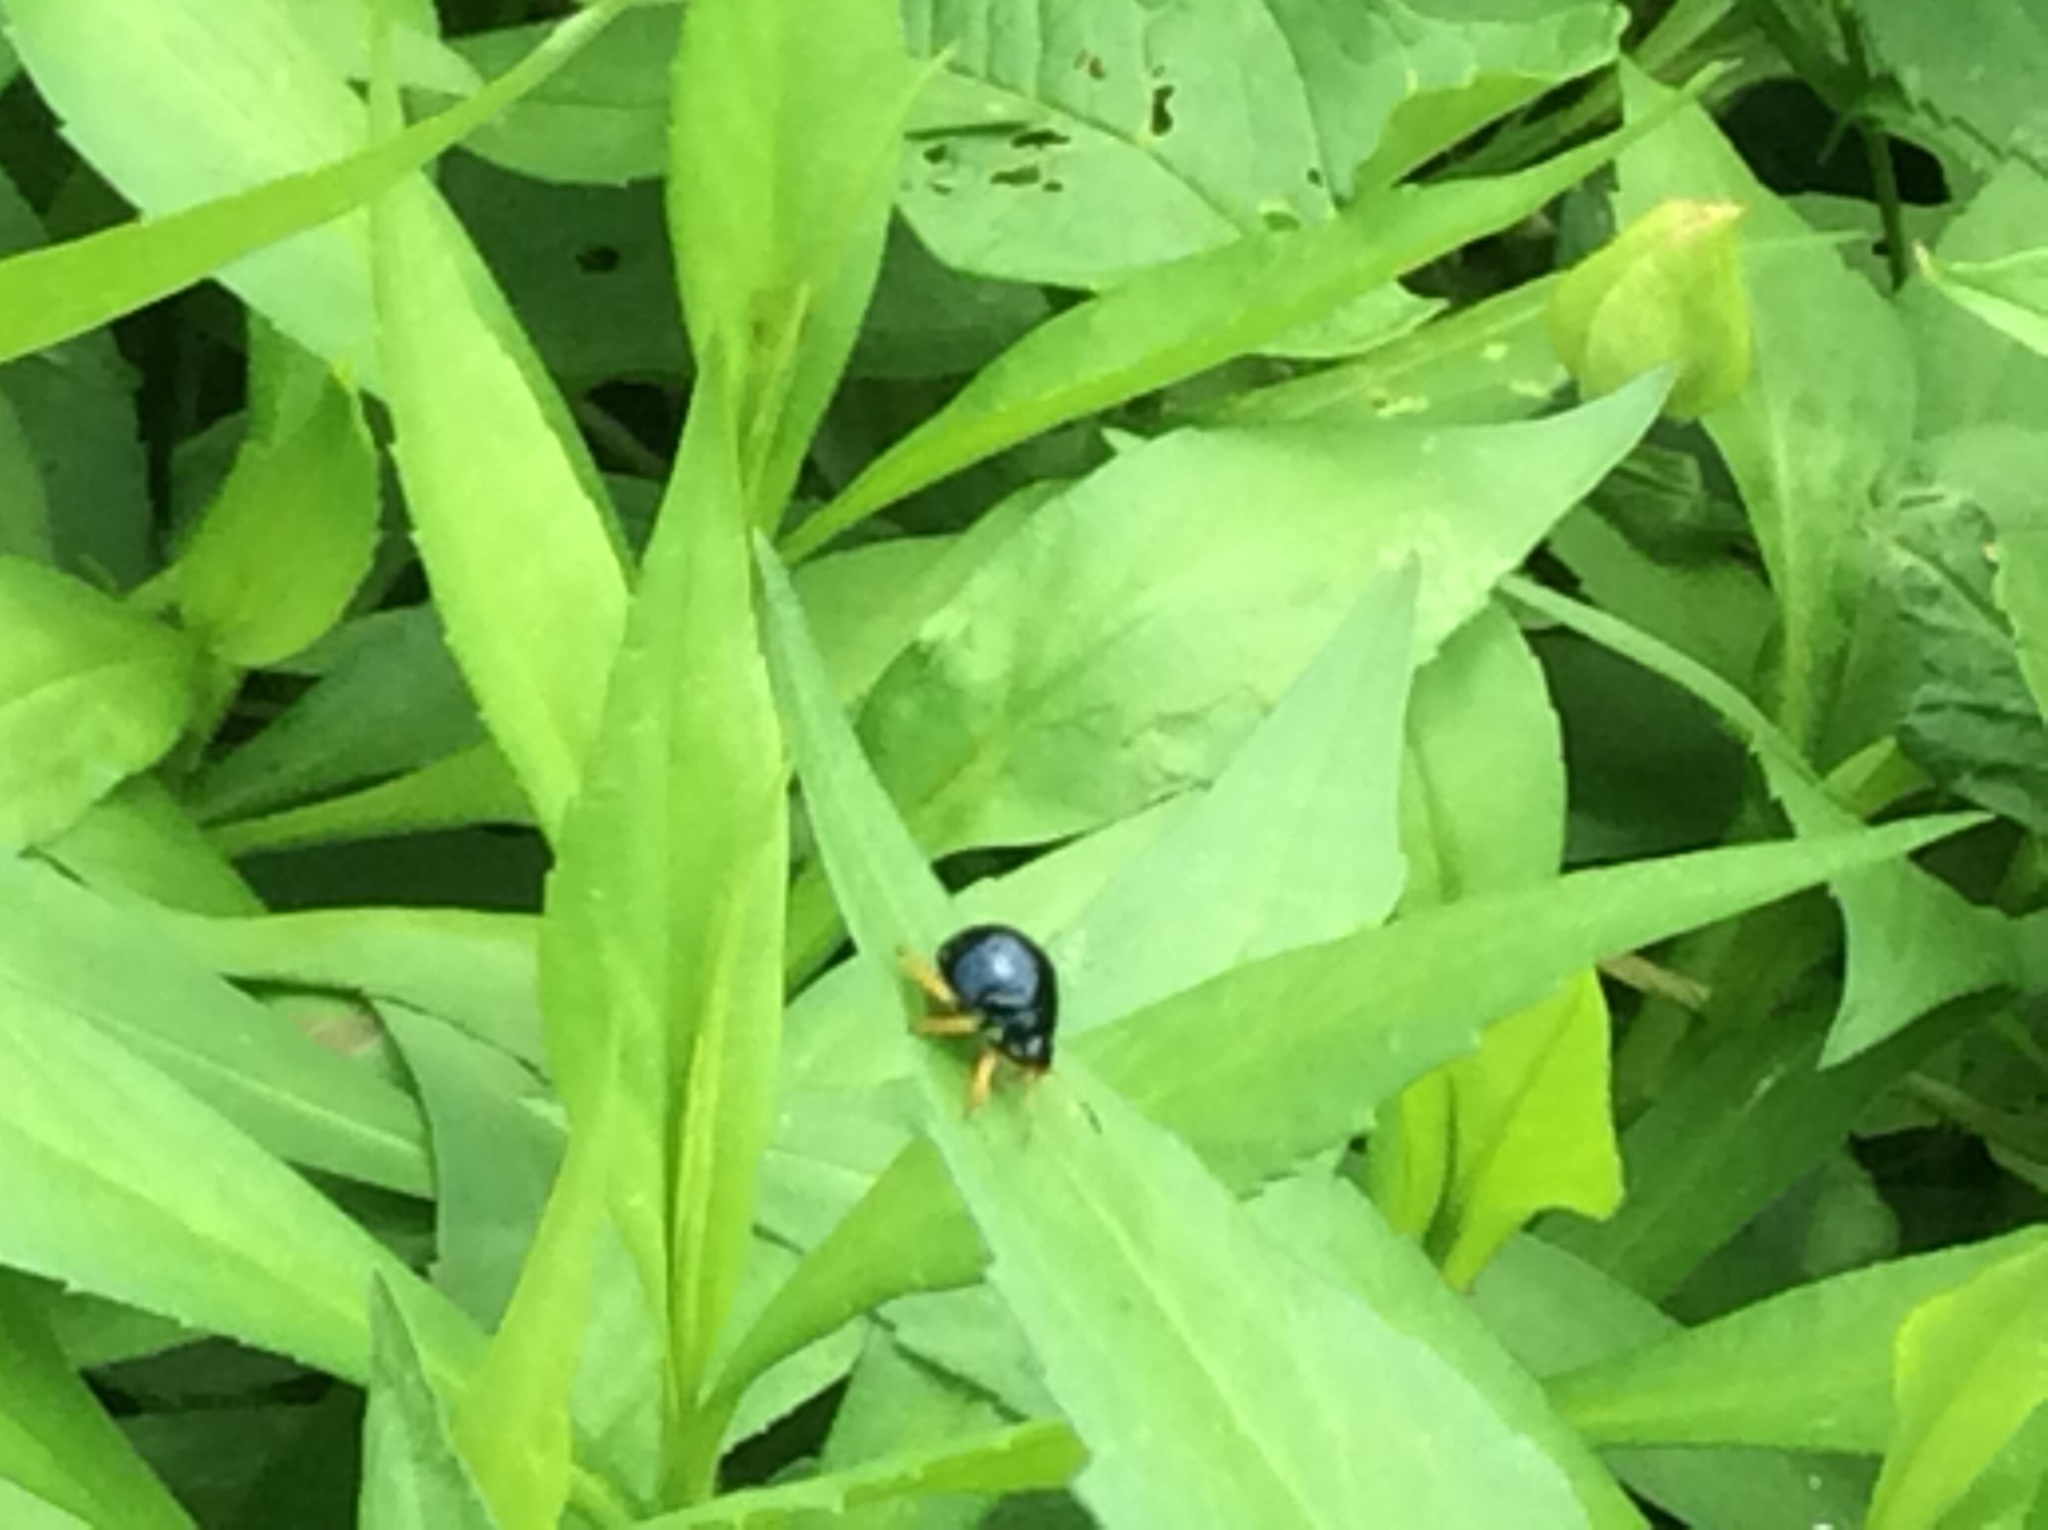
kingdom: Animalia
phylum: Arthropoda
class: Insecta
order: Hemiptera
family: Pentatomidae
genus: Stiretrus
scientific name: Stiretrus anchorago
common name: Anchor stink bug
